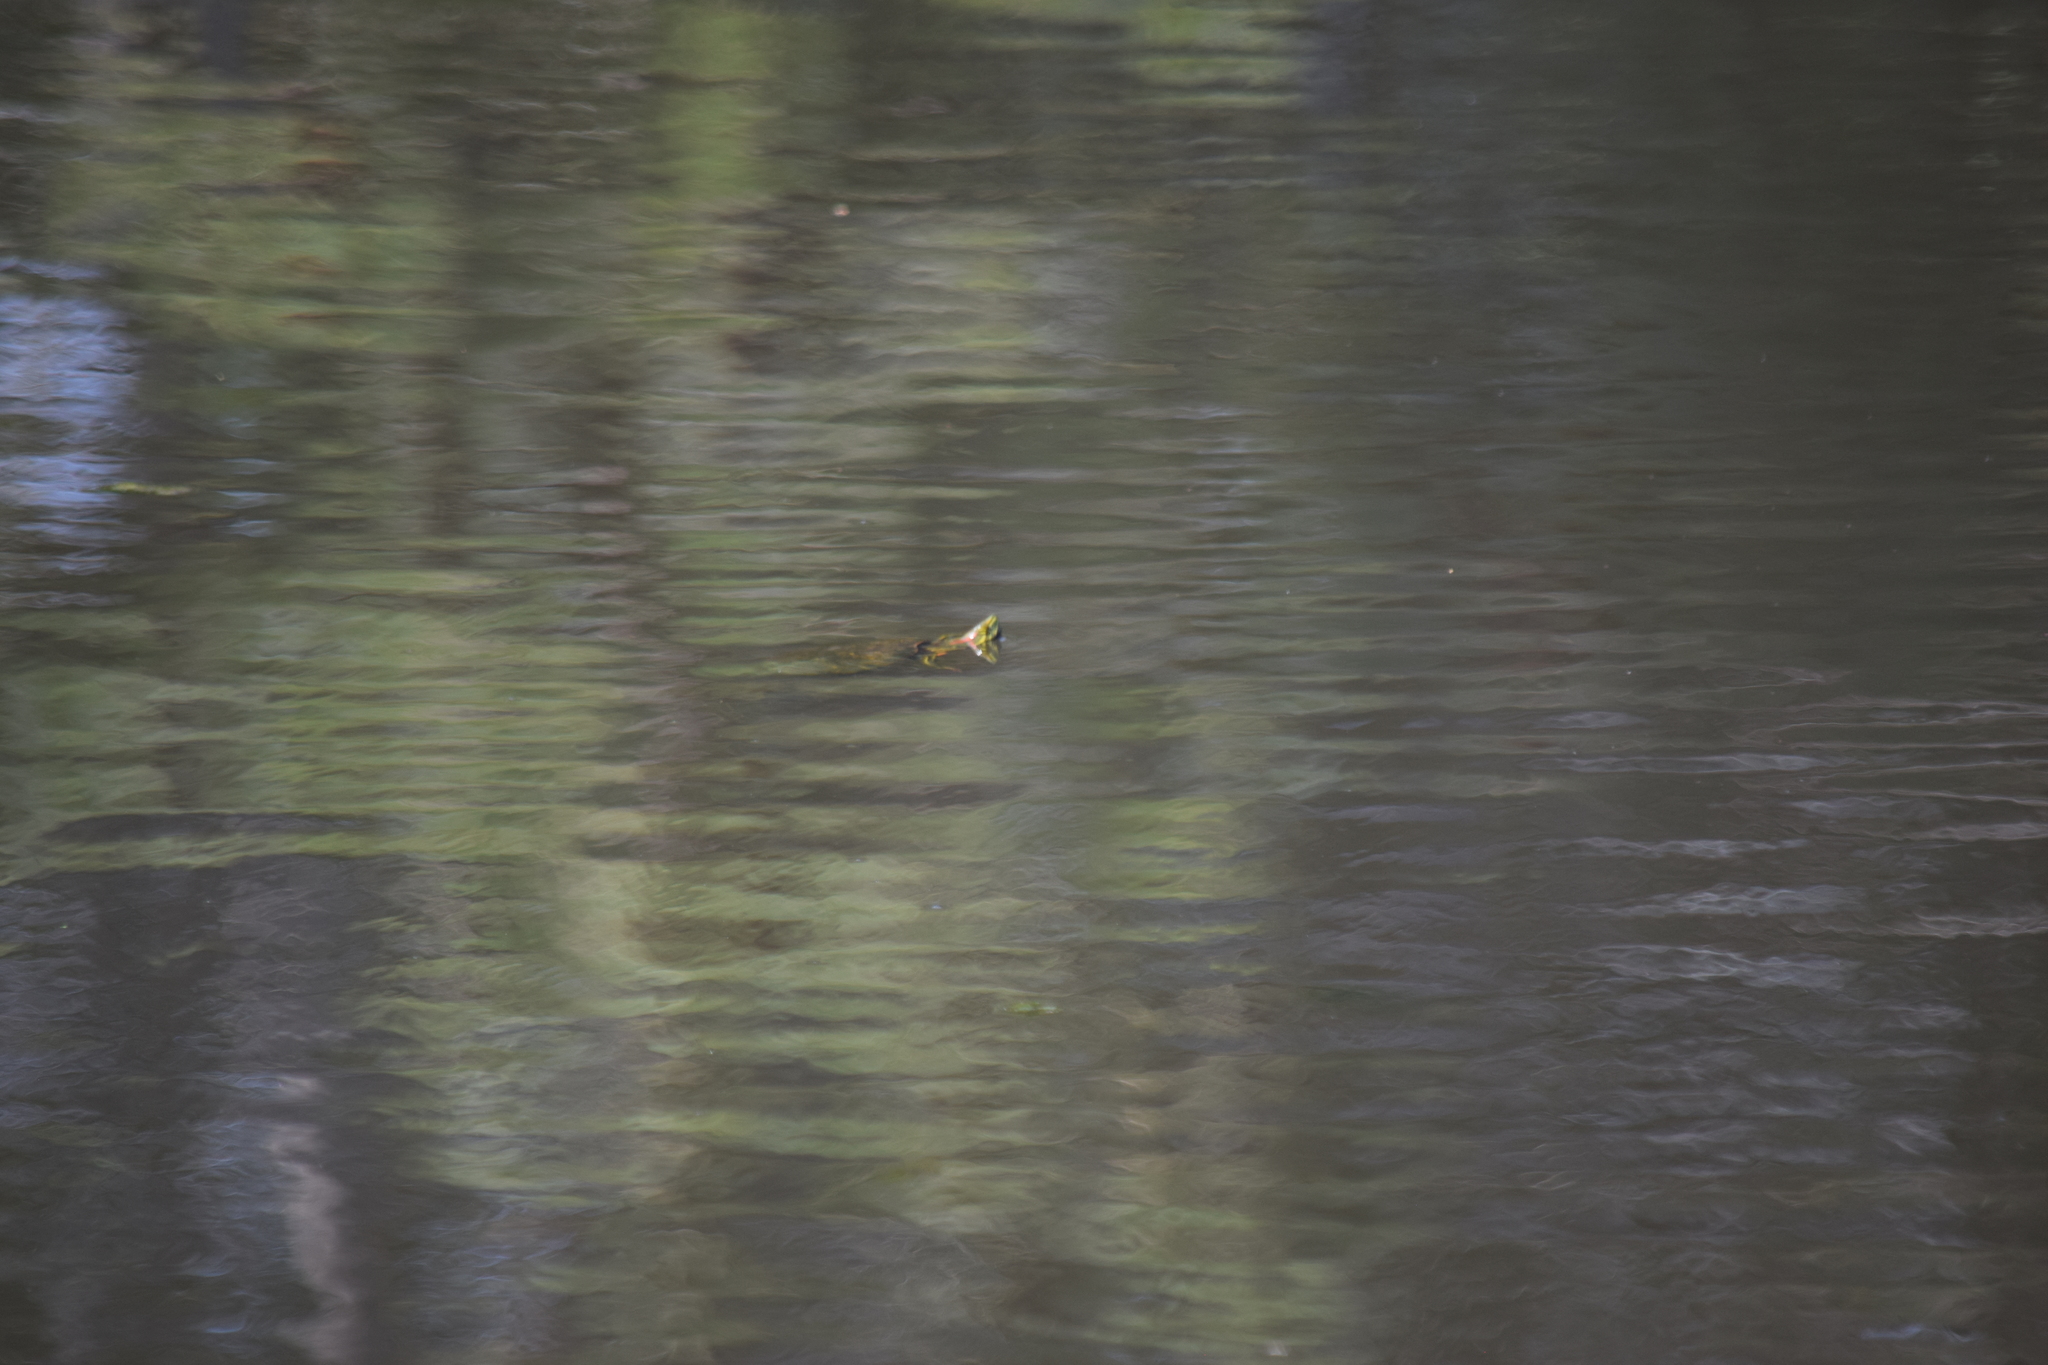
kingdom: Animalia
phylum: Chordata
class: Testudines
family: Emydidae
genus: Trachemys
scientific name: Trachemys scripta
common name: Slider
